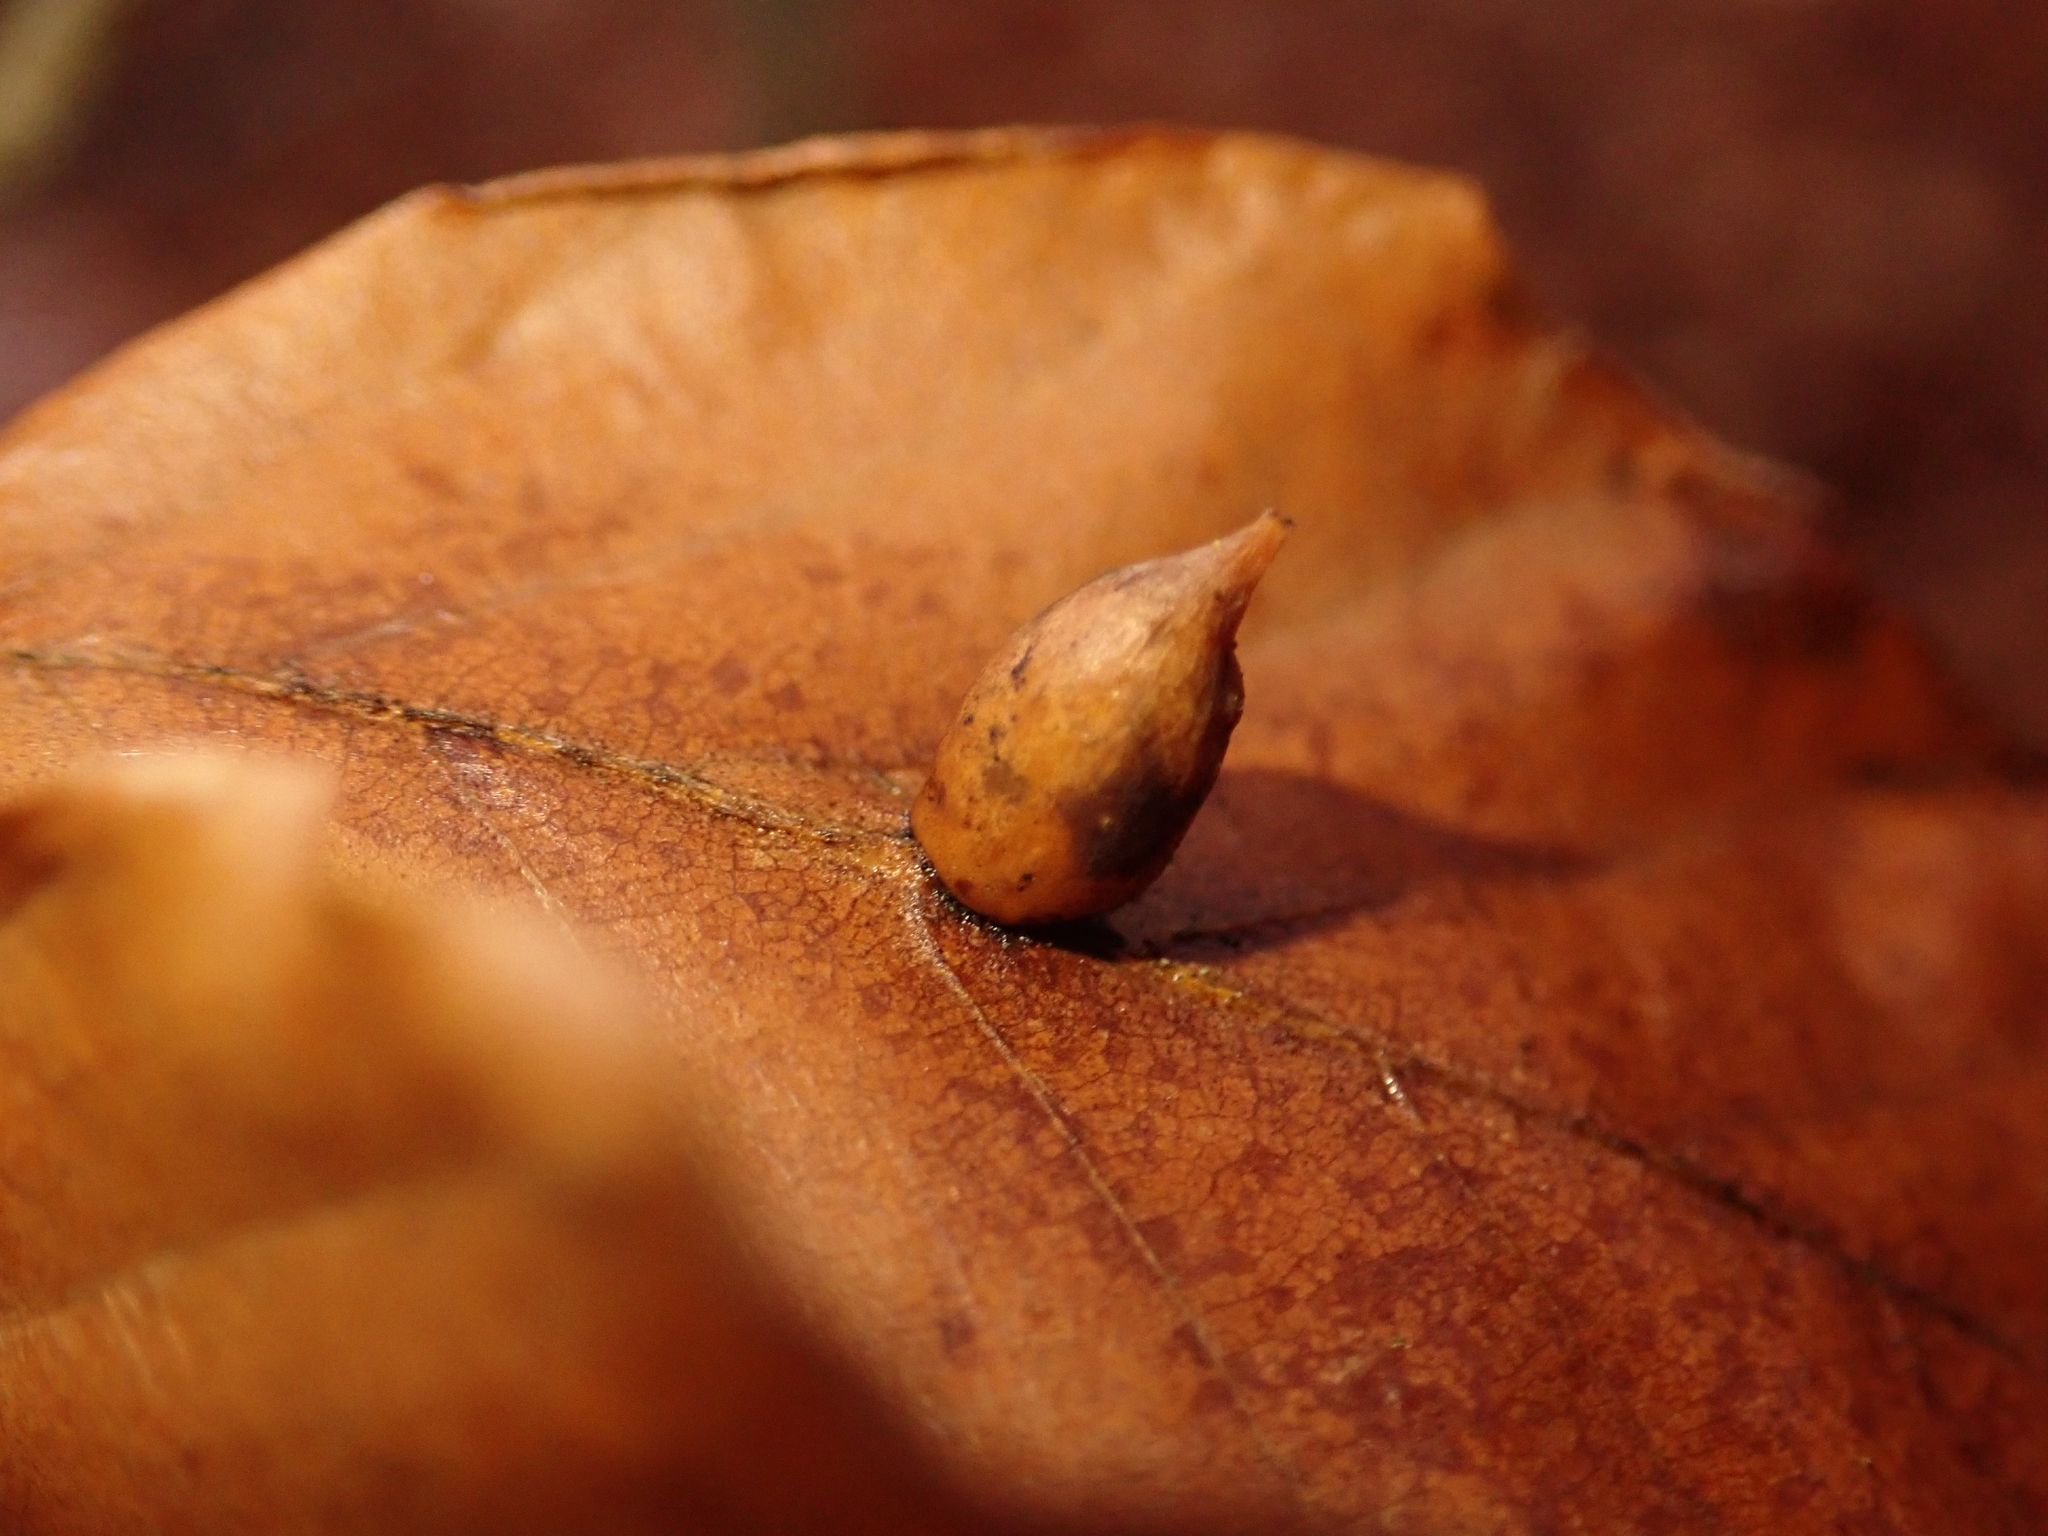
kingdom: Animalia
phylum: Arthropoda
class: Insecta
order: Diptera
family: Cecidomyiidae
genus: Mikiola
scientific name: Mikiola fagi
